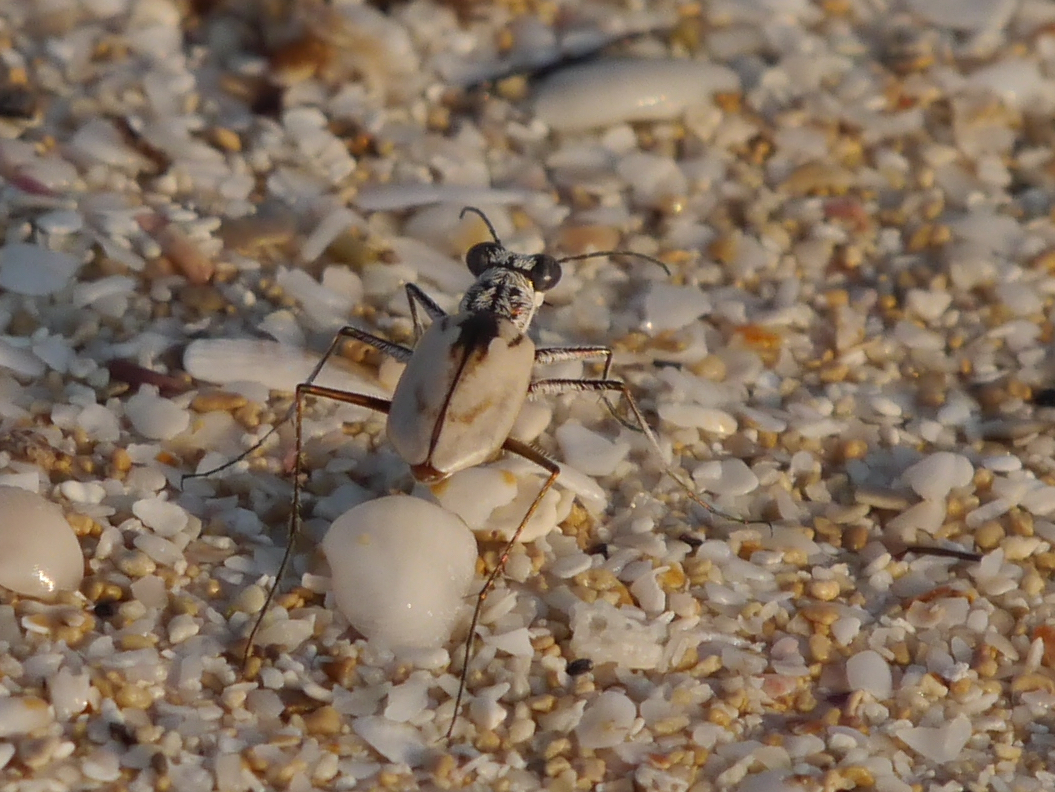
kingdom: Animalia
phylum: Arthropoda
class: Insecta
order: Coleoptera
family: Carabidae
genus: Ellipsoptera
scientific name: Ellipsoptera hamata
